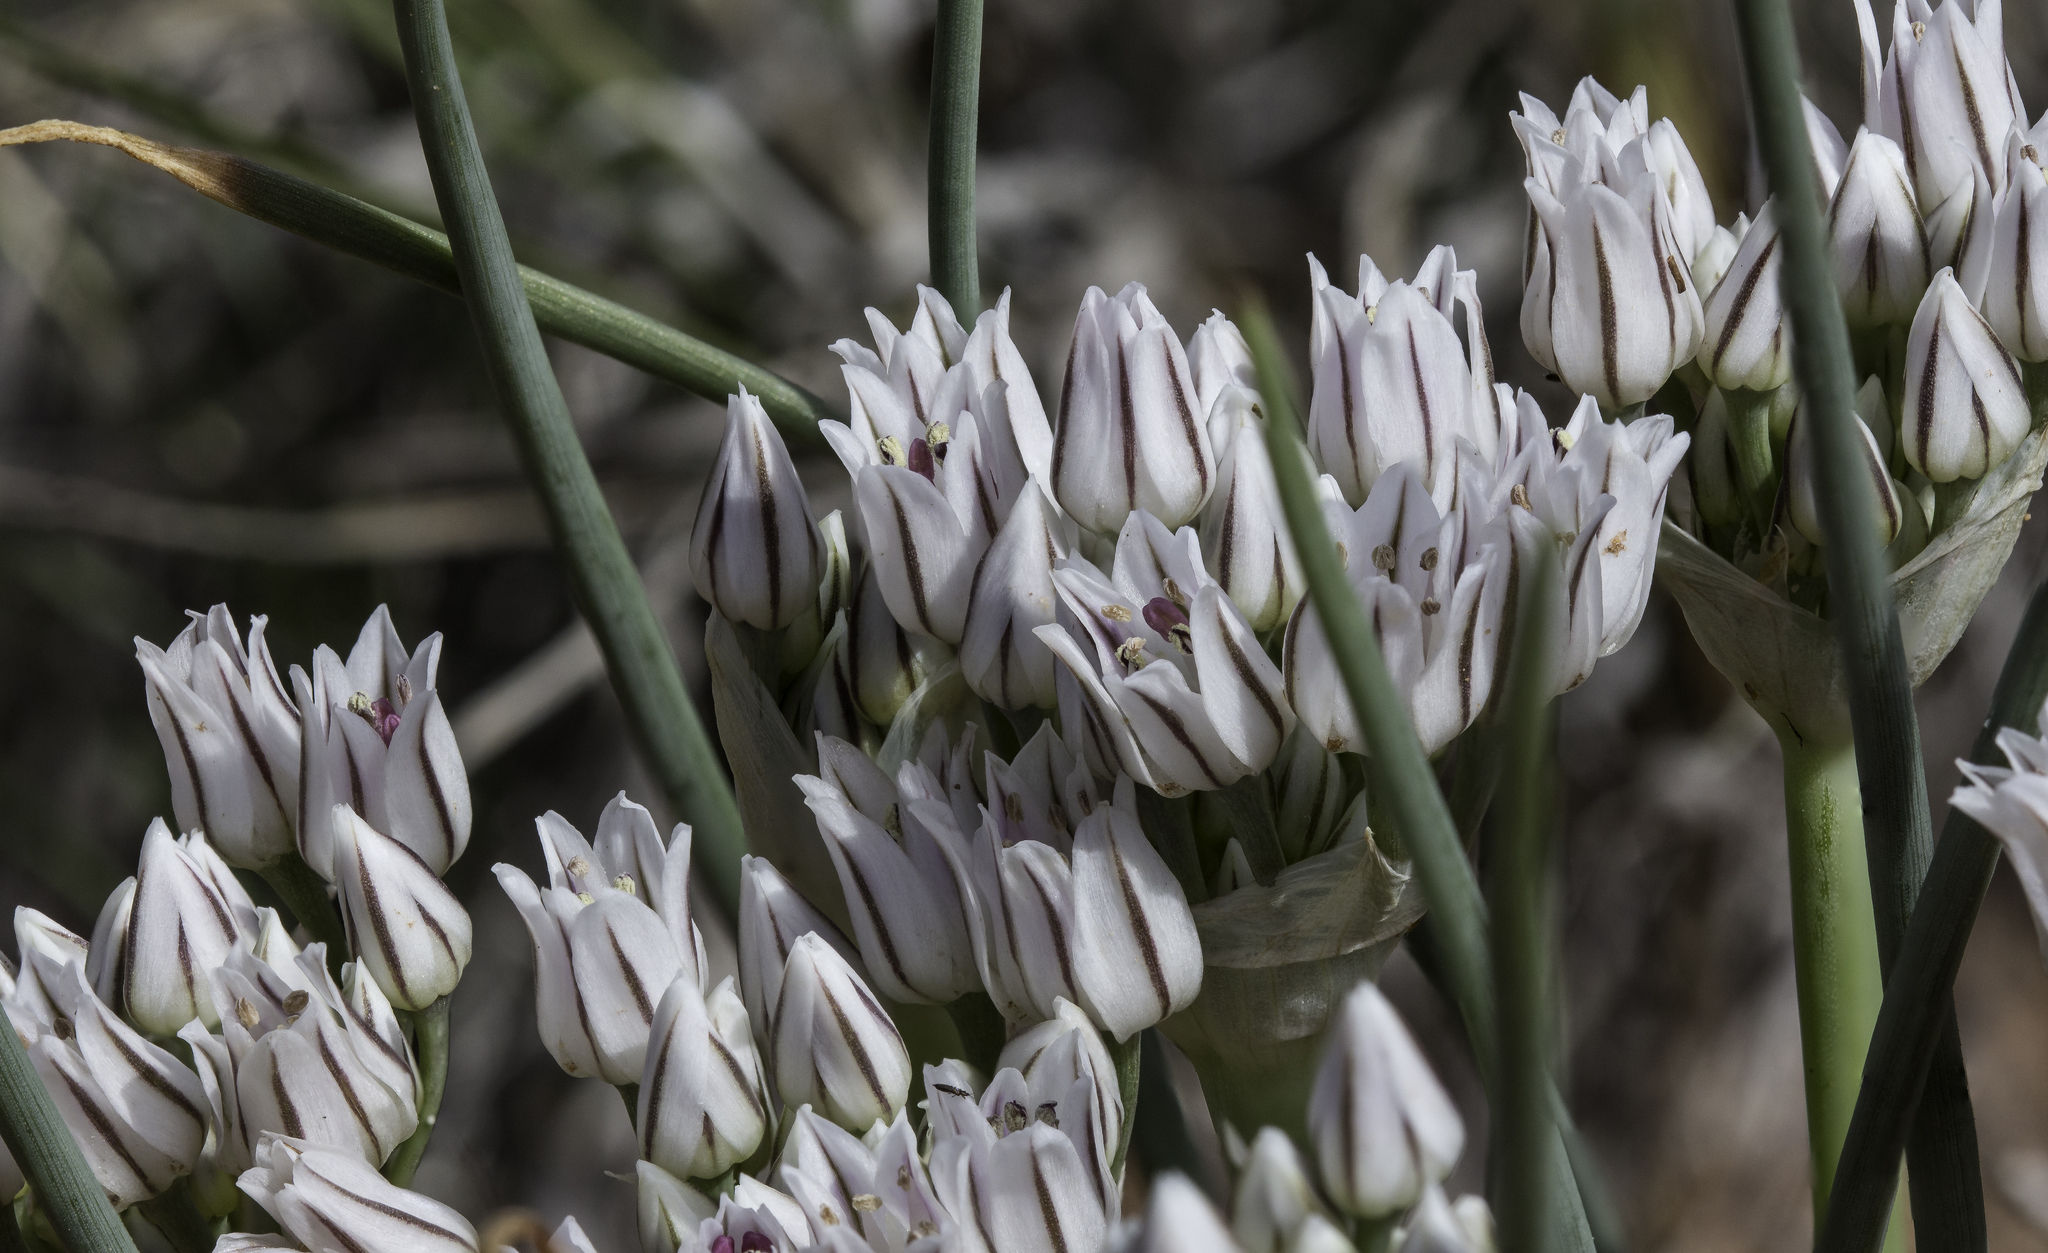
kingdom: Plantae
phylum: Tracheophyta
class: Liliopsida
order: Asparagales
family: Amaryllidaceae
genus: Allium
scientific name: Allium macropetalum
